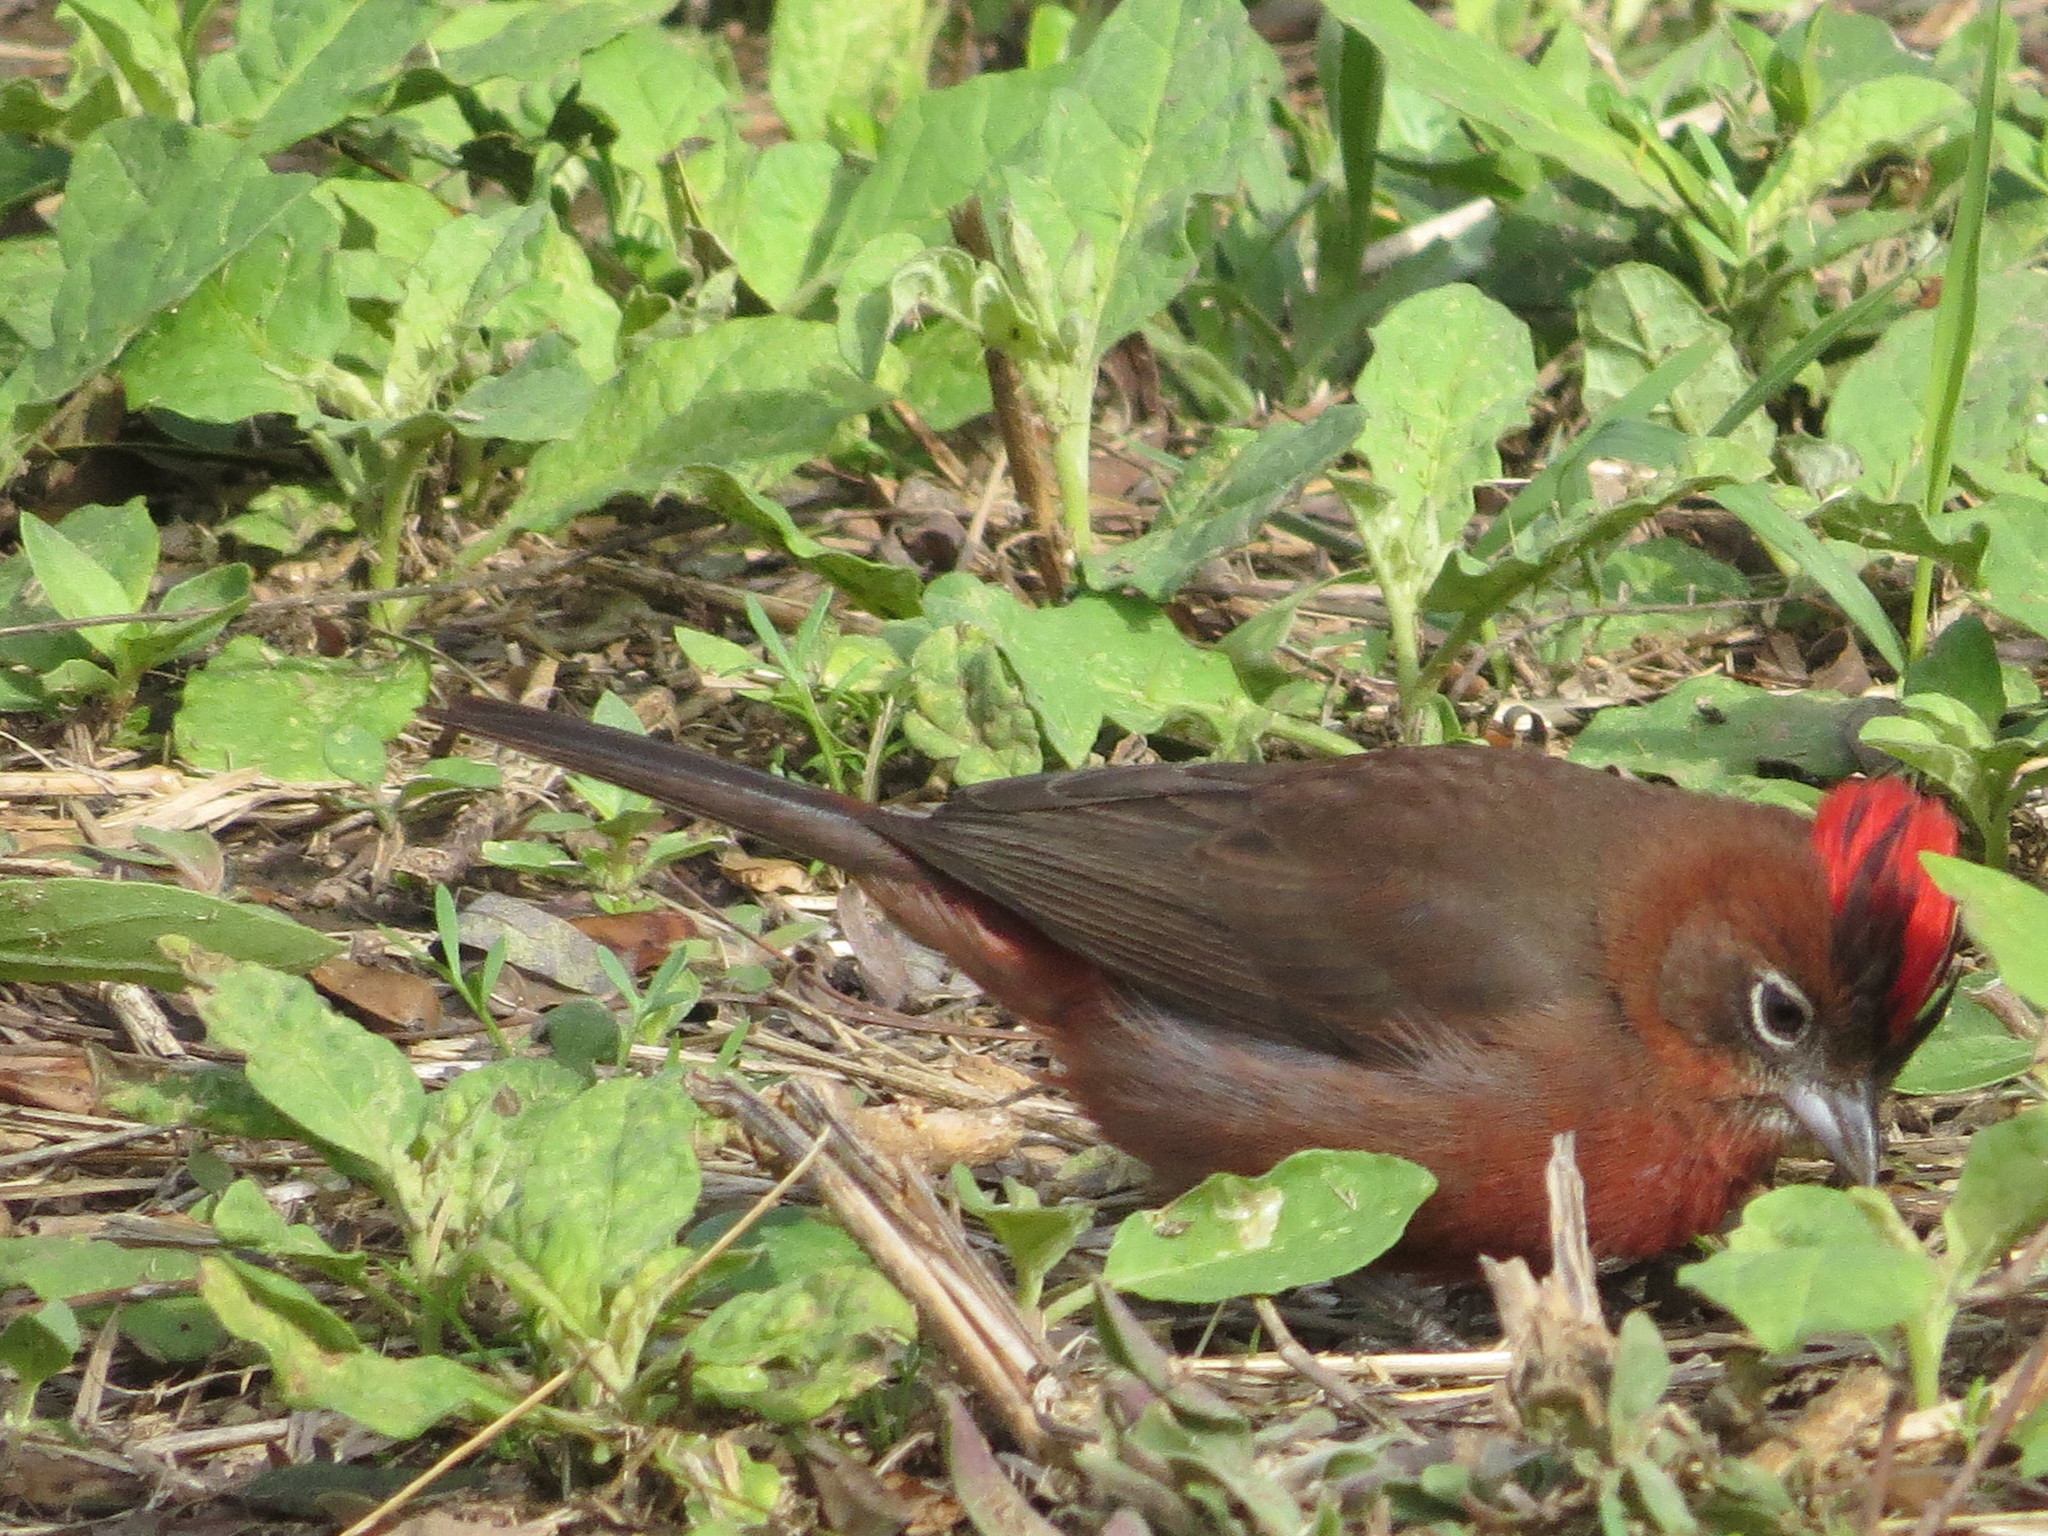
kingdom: Animalia
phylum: Chordata
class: Aves
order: Passeriformes
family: Thraupidae
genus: Coryphospingus
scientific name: Coryphospingus cucullatus
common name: Red pileated finch
